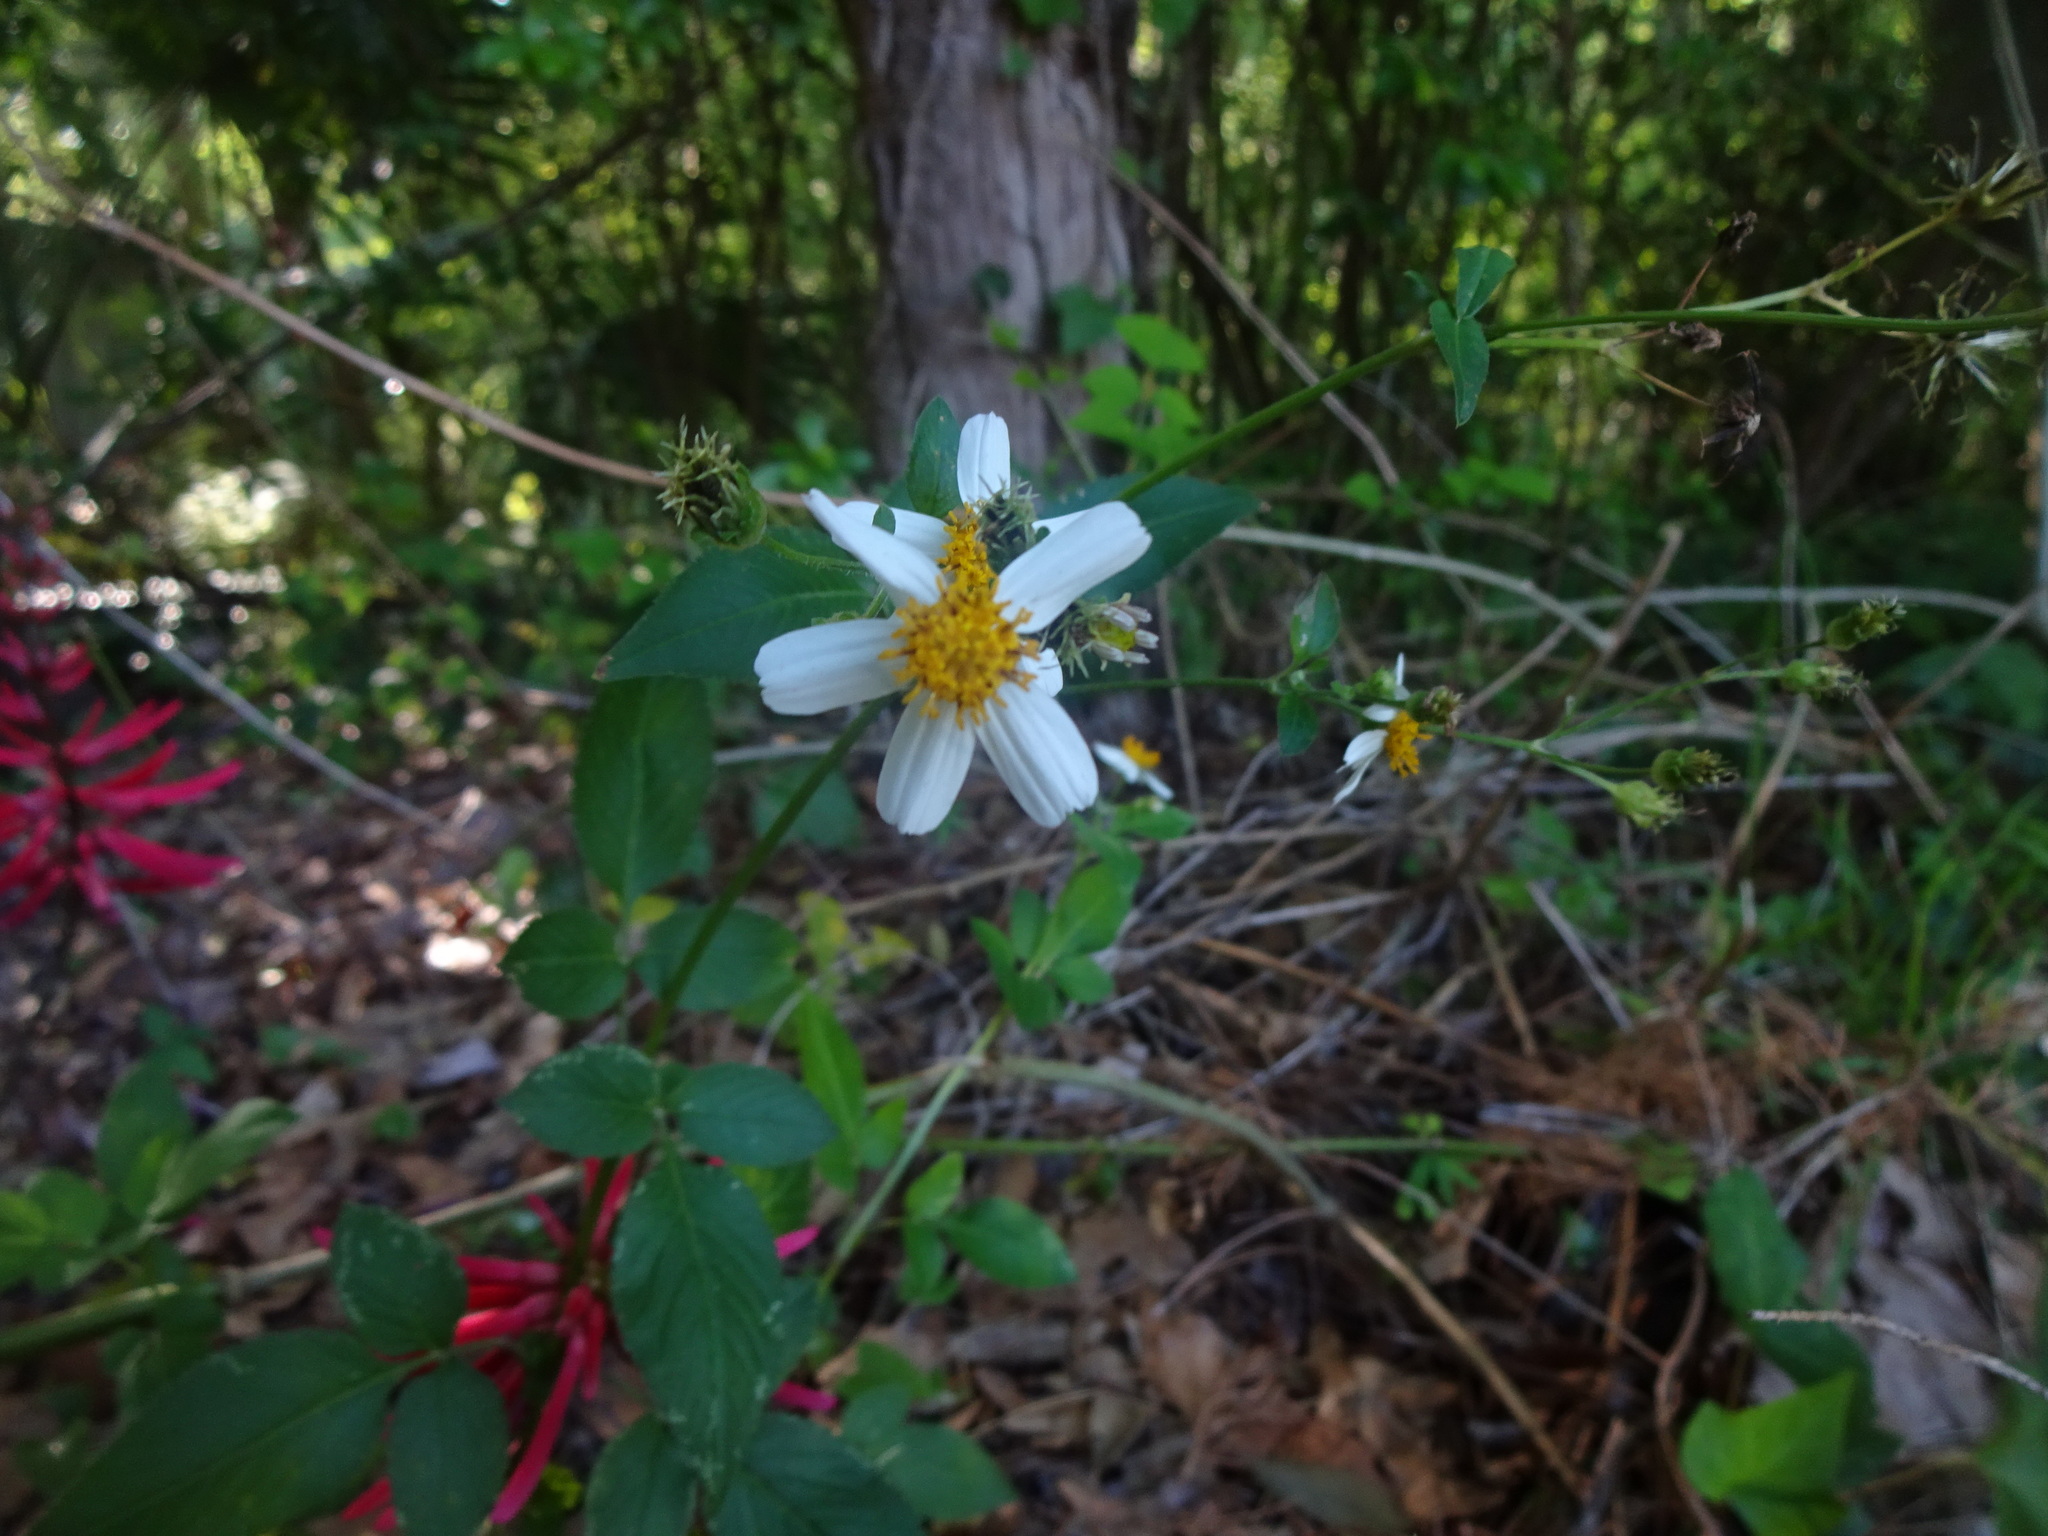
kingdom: Plantae
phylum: Tracheophyta
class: Magnoliopsida
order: Asterales
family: Asteraceae
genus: Bidens
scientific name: Bidens alba
